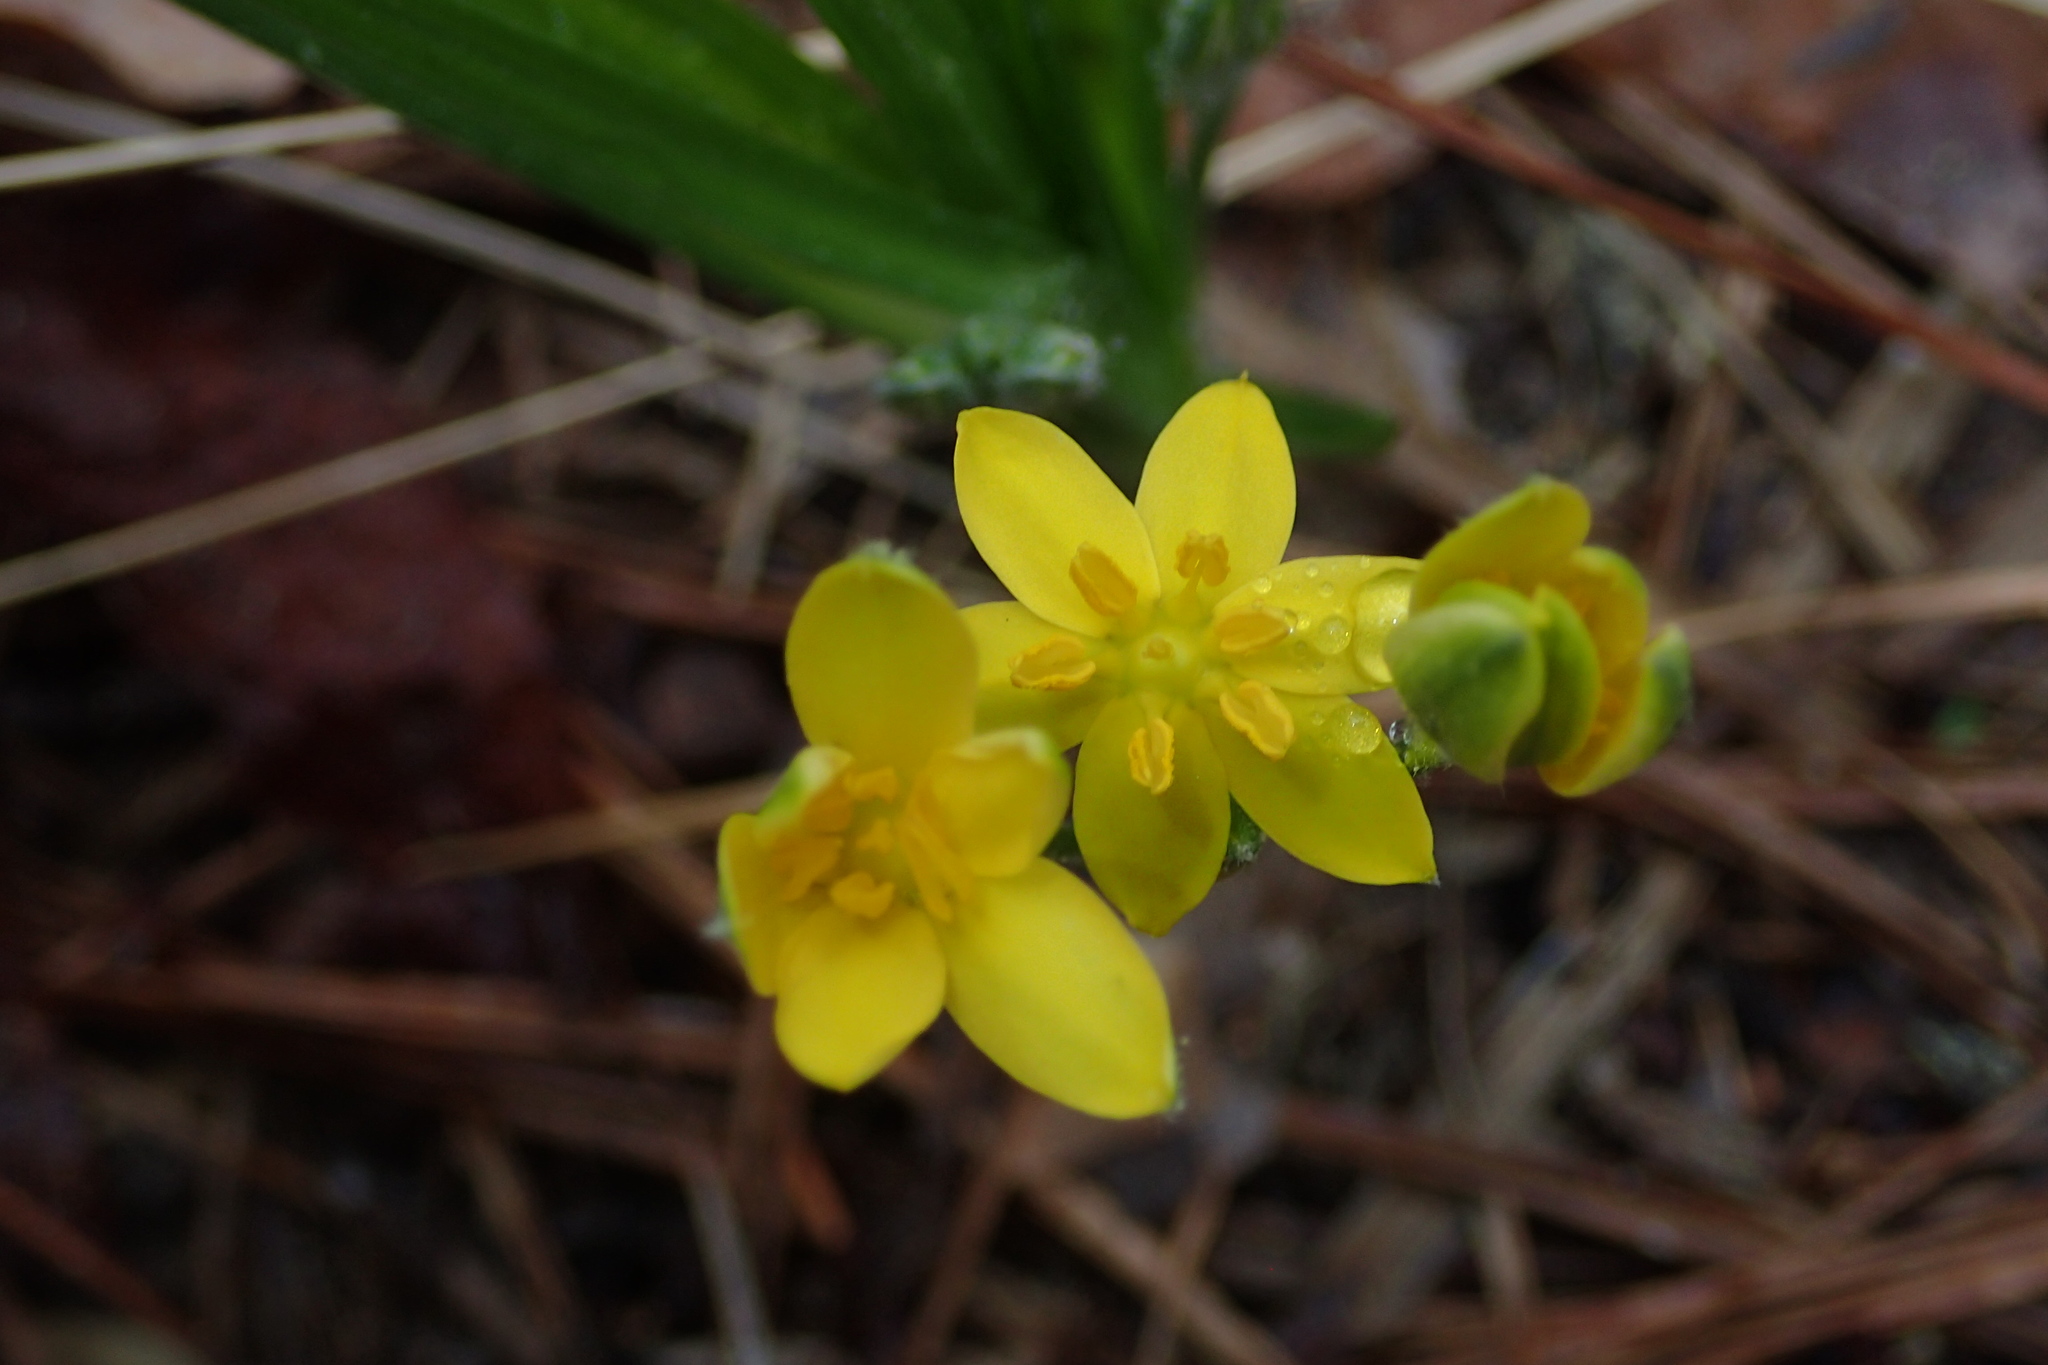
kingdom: Plantae
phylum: Tracheophyta
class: Liliopsida
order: Asparagales
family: Hypoxidaceae
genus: Hypoxis
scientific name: Hypoxis hirsuta
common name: Common goldstar
